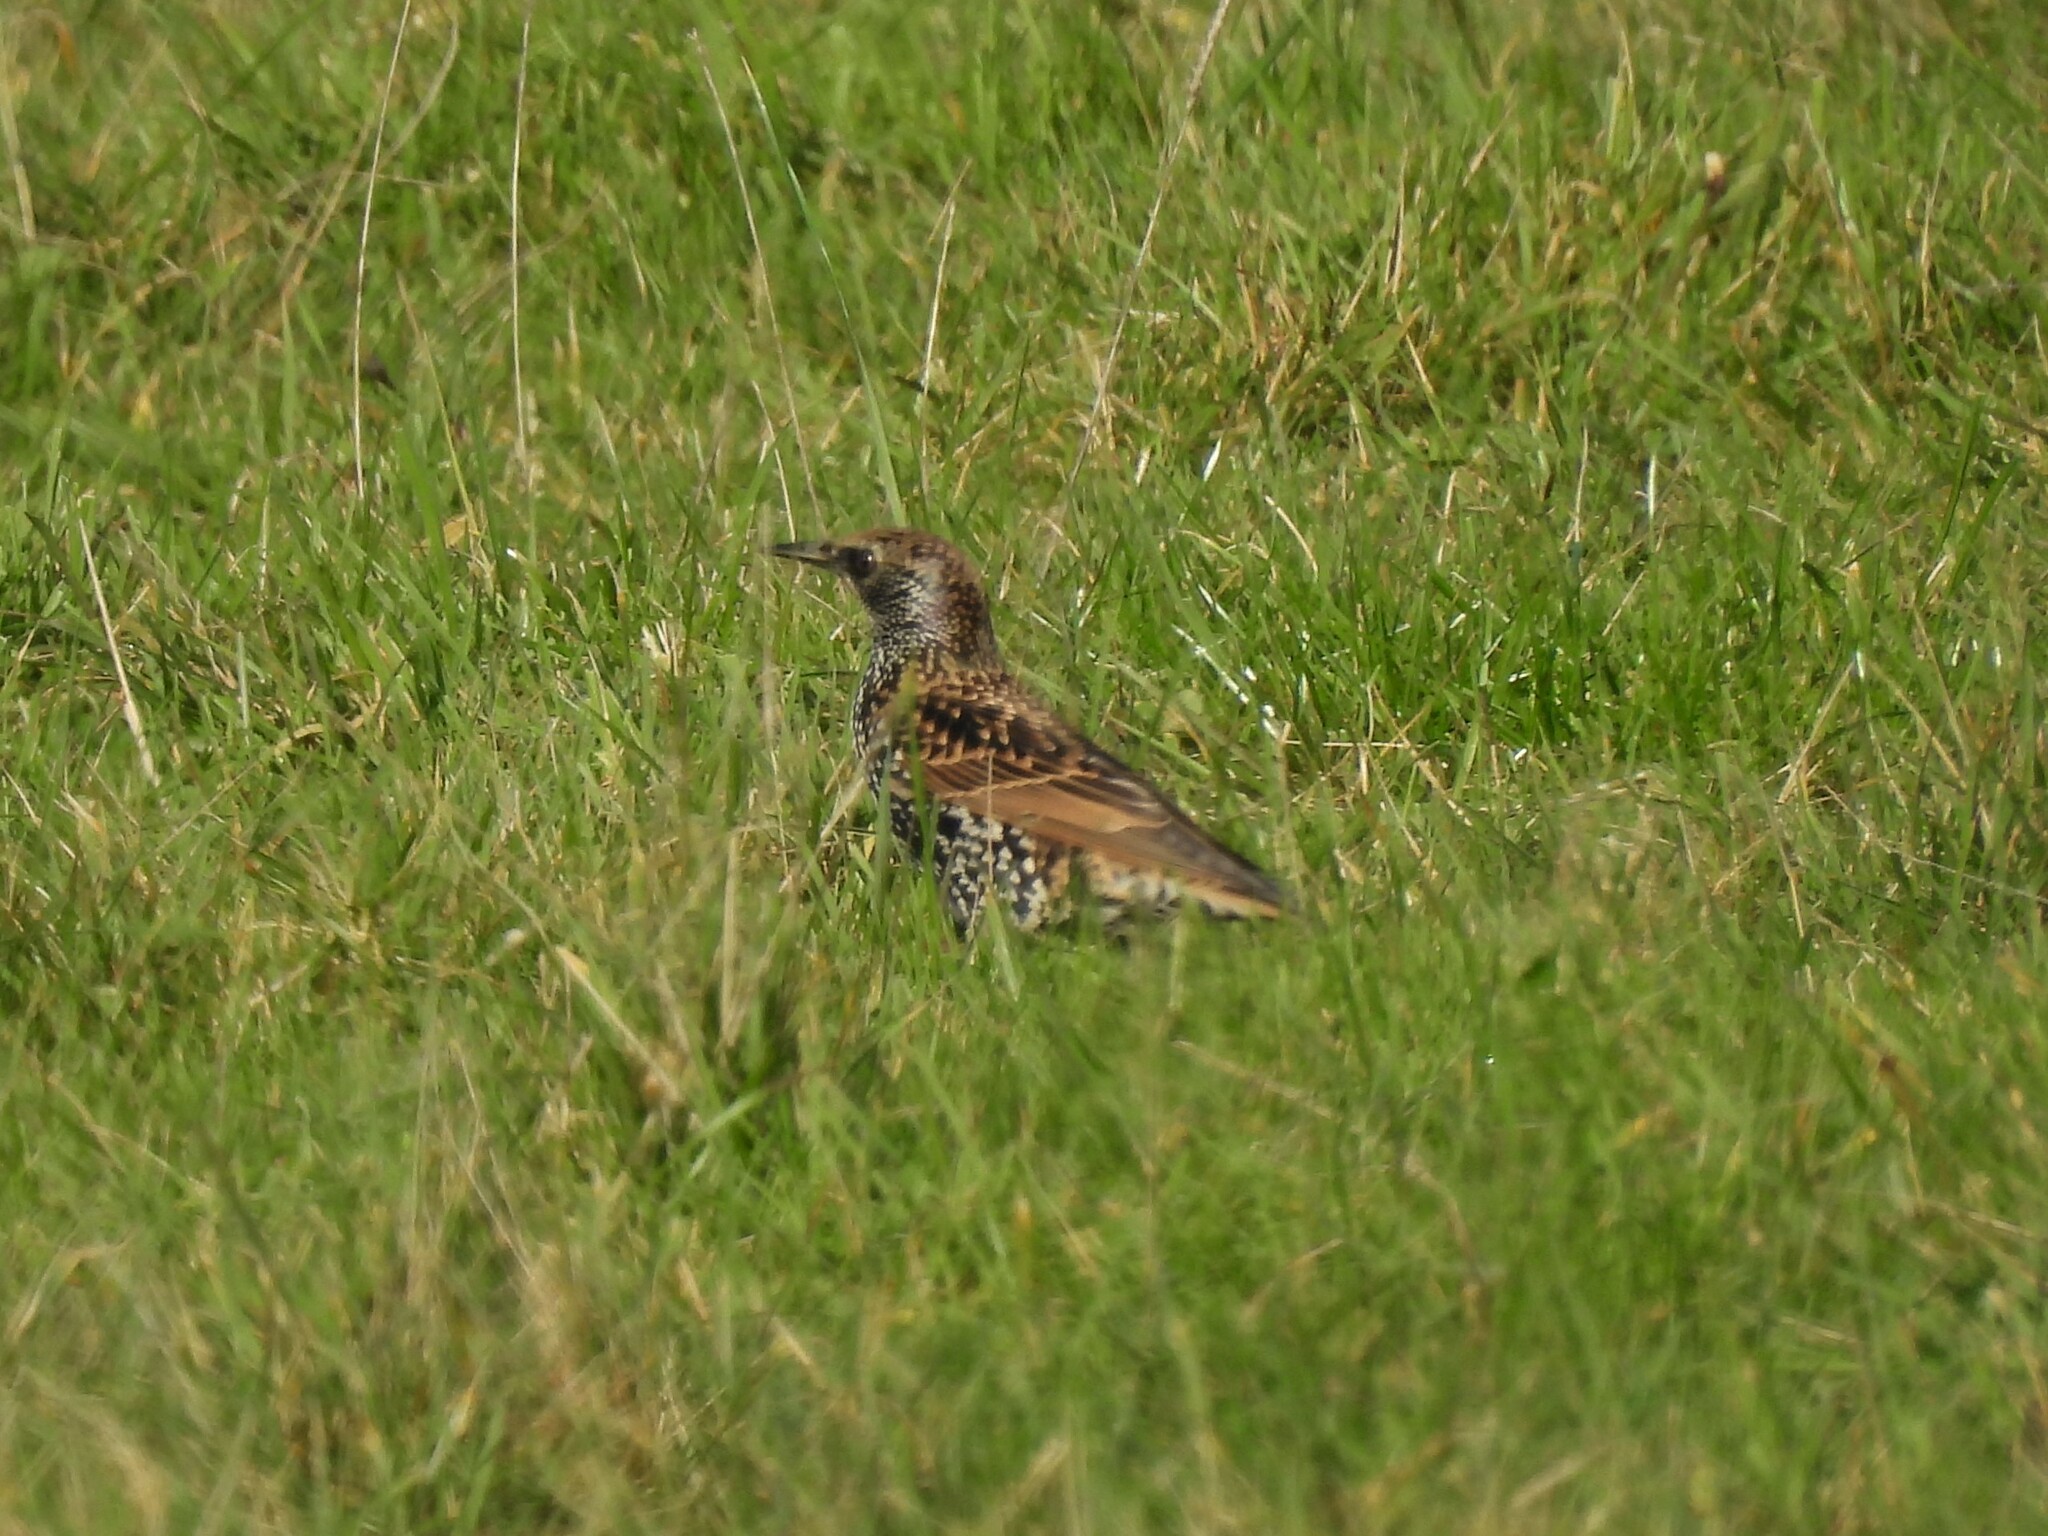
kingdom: Animalia
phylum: Chordata
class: Aves
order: Passeriformes
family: Sturnidae
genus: Sturnus
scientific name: Sturnus vulgaris
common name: Common starling
